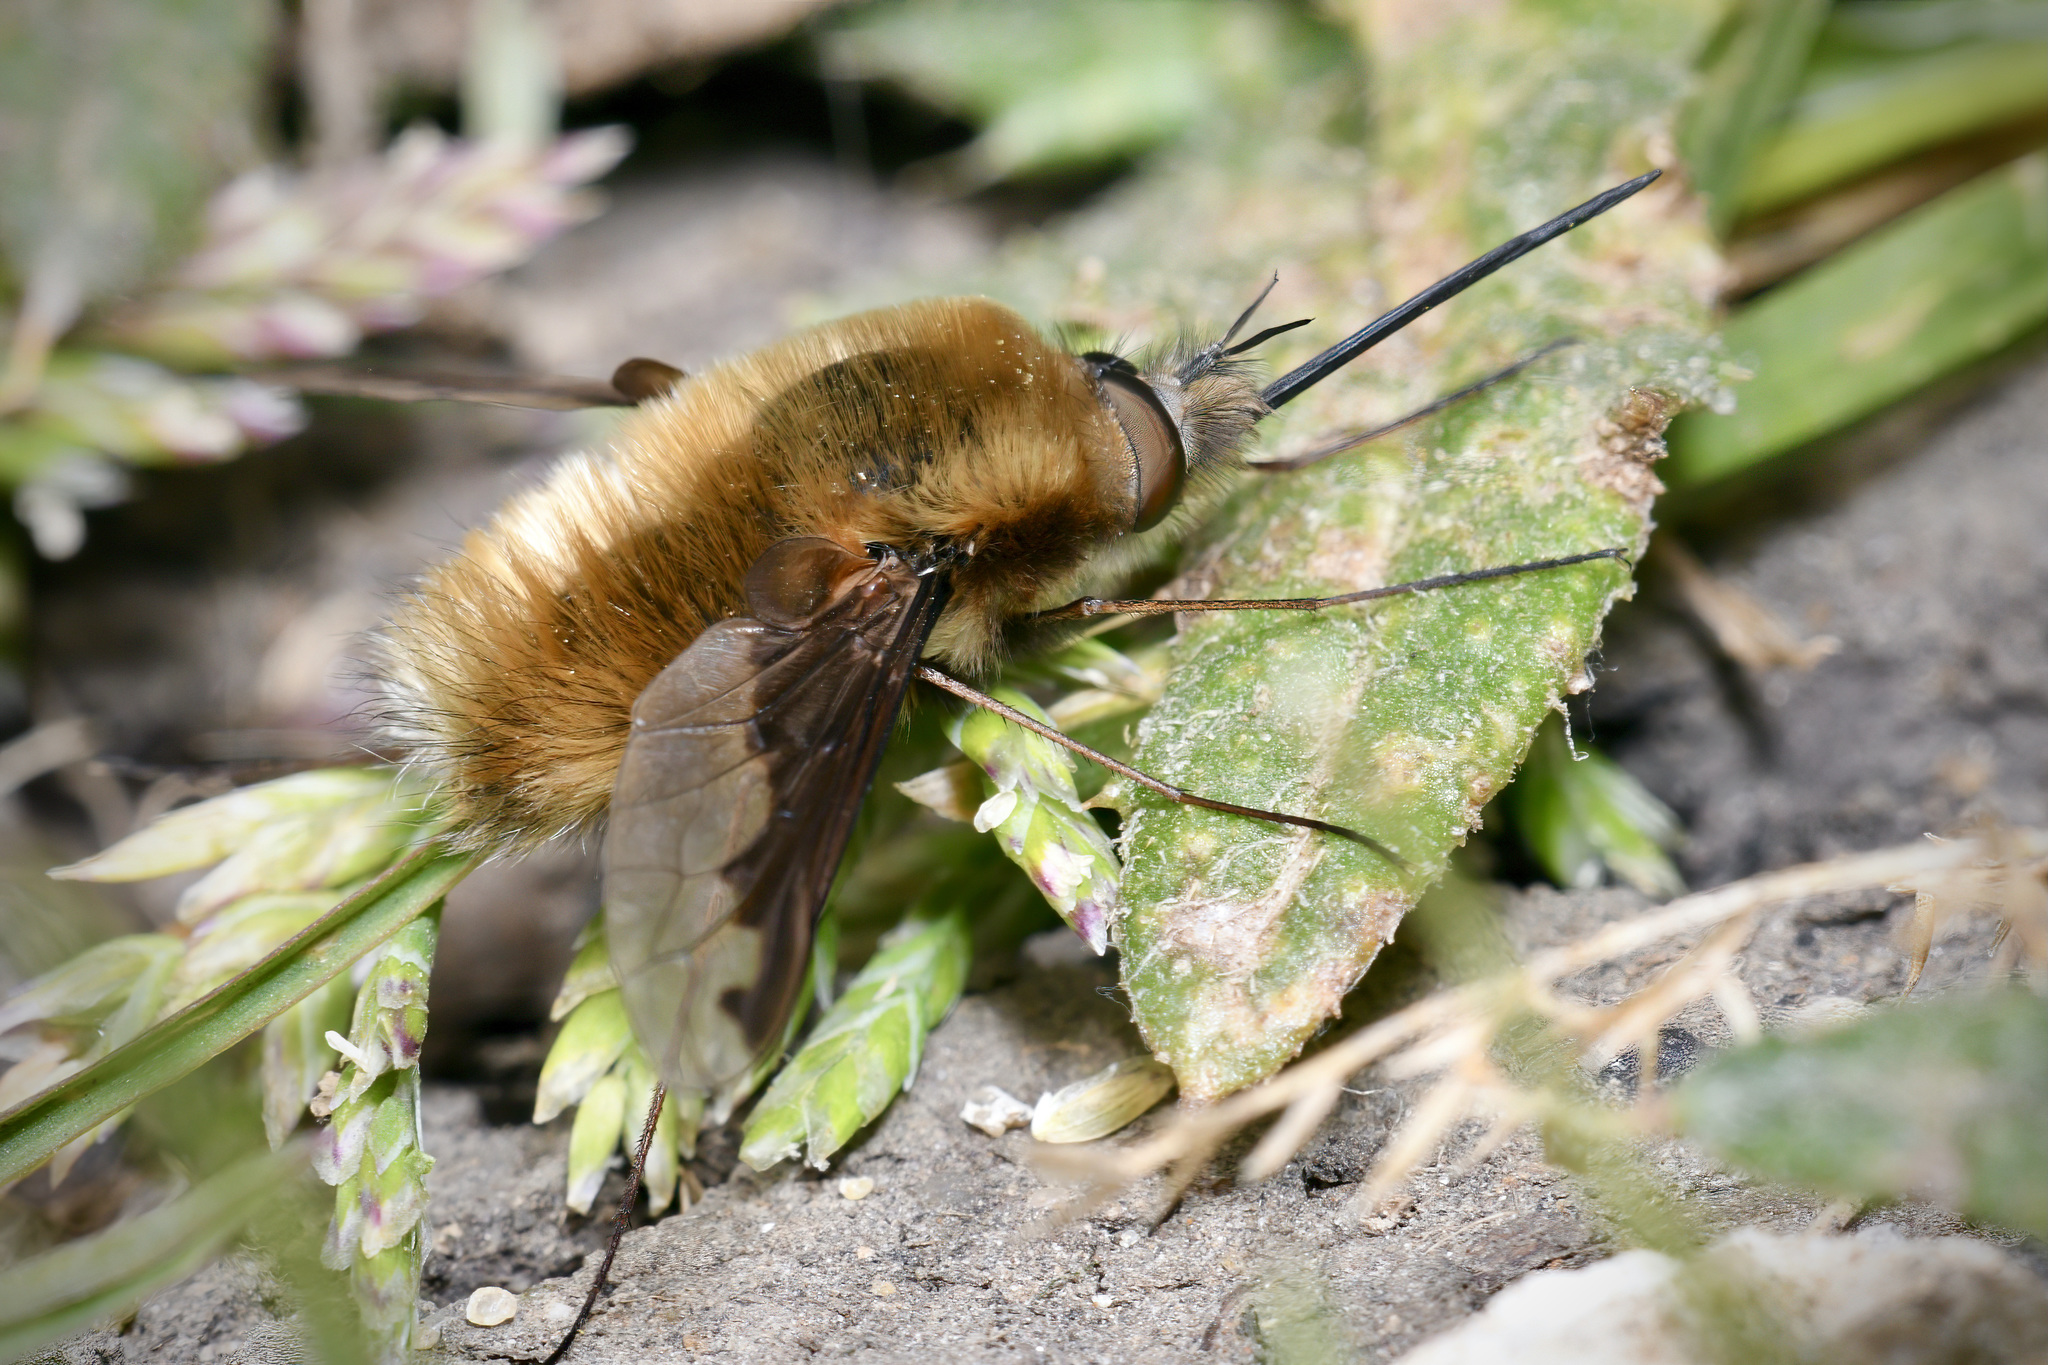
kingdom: Animalia
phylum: Arthropoda
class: Insecta
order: Diptera
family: Bombyliidae
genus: Bombylius
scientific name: Bombylius major
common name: Bee fly
